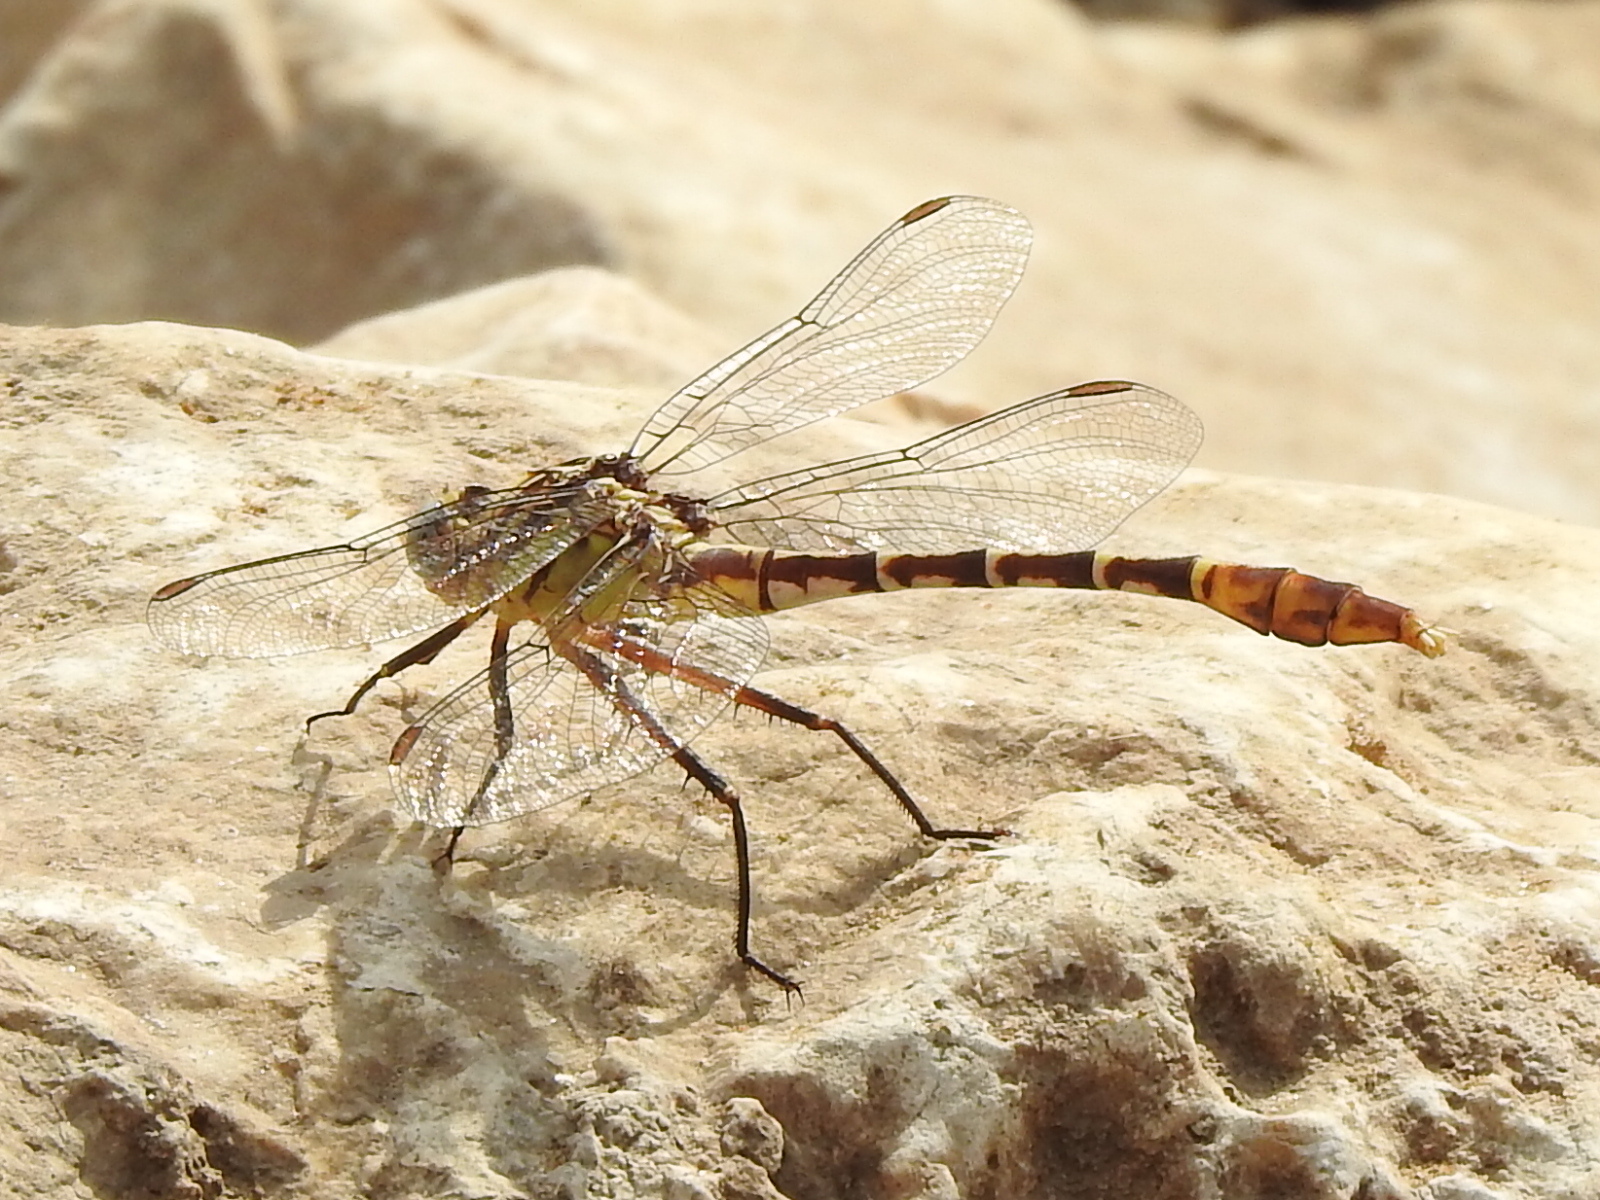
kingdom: Animalia
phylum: Arthropoda
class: Insecta
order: Odonata
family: Gomphidae
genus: Dromogomphus
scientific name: Dromogomphus spoliatus
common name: Flag-tailed spinyleg
